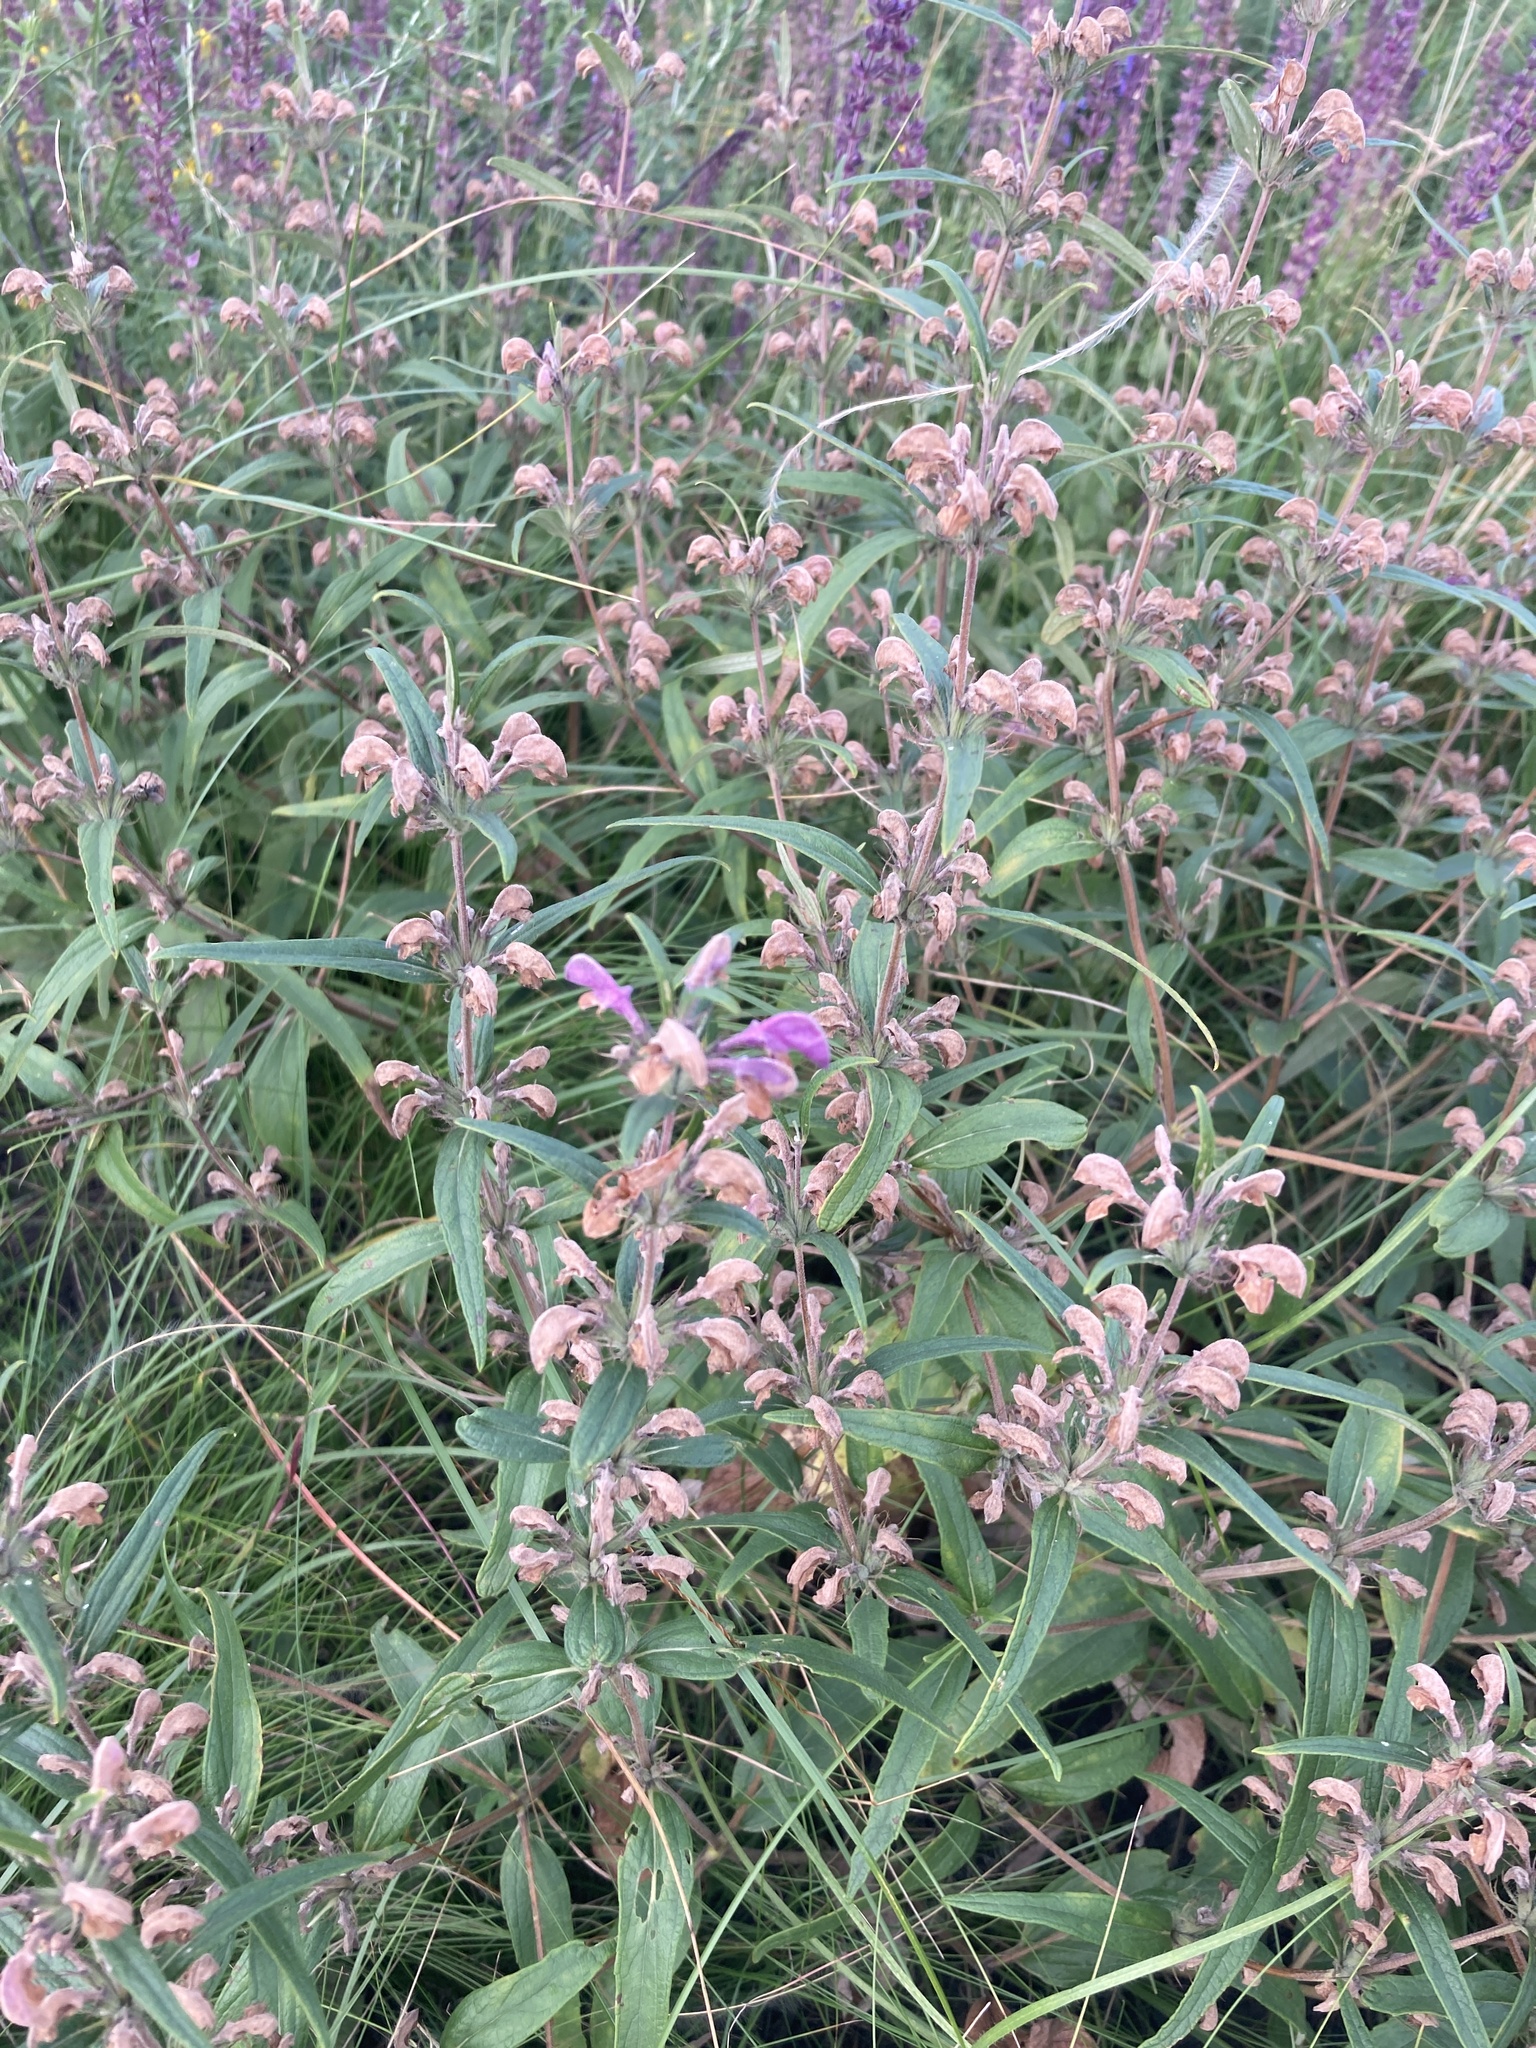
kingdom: Plantae
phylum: Tracheophyta
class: Magnoliopsida
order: Lamiales
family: Lamiaceae
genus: Phlomis
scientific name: Phlomis herba-venti
